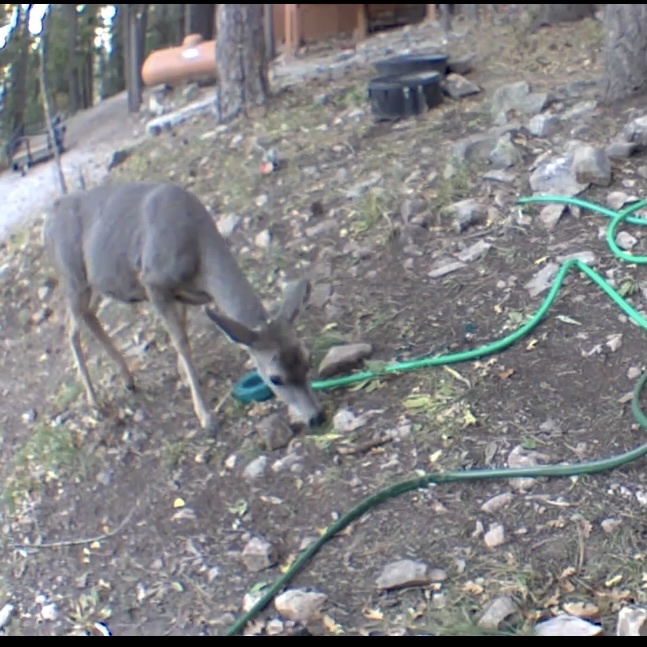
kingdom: Animalia
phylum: Chordata
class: Mammalia
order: Artiodactyla
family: Cervidae
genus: Odocoileus
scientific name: Odocoileus hemionus
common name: Mule deer
